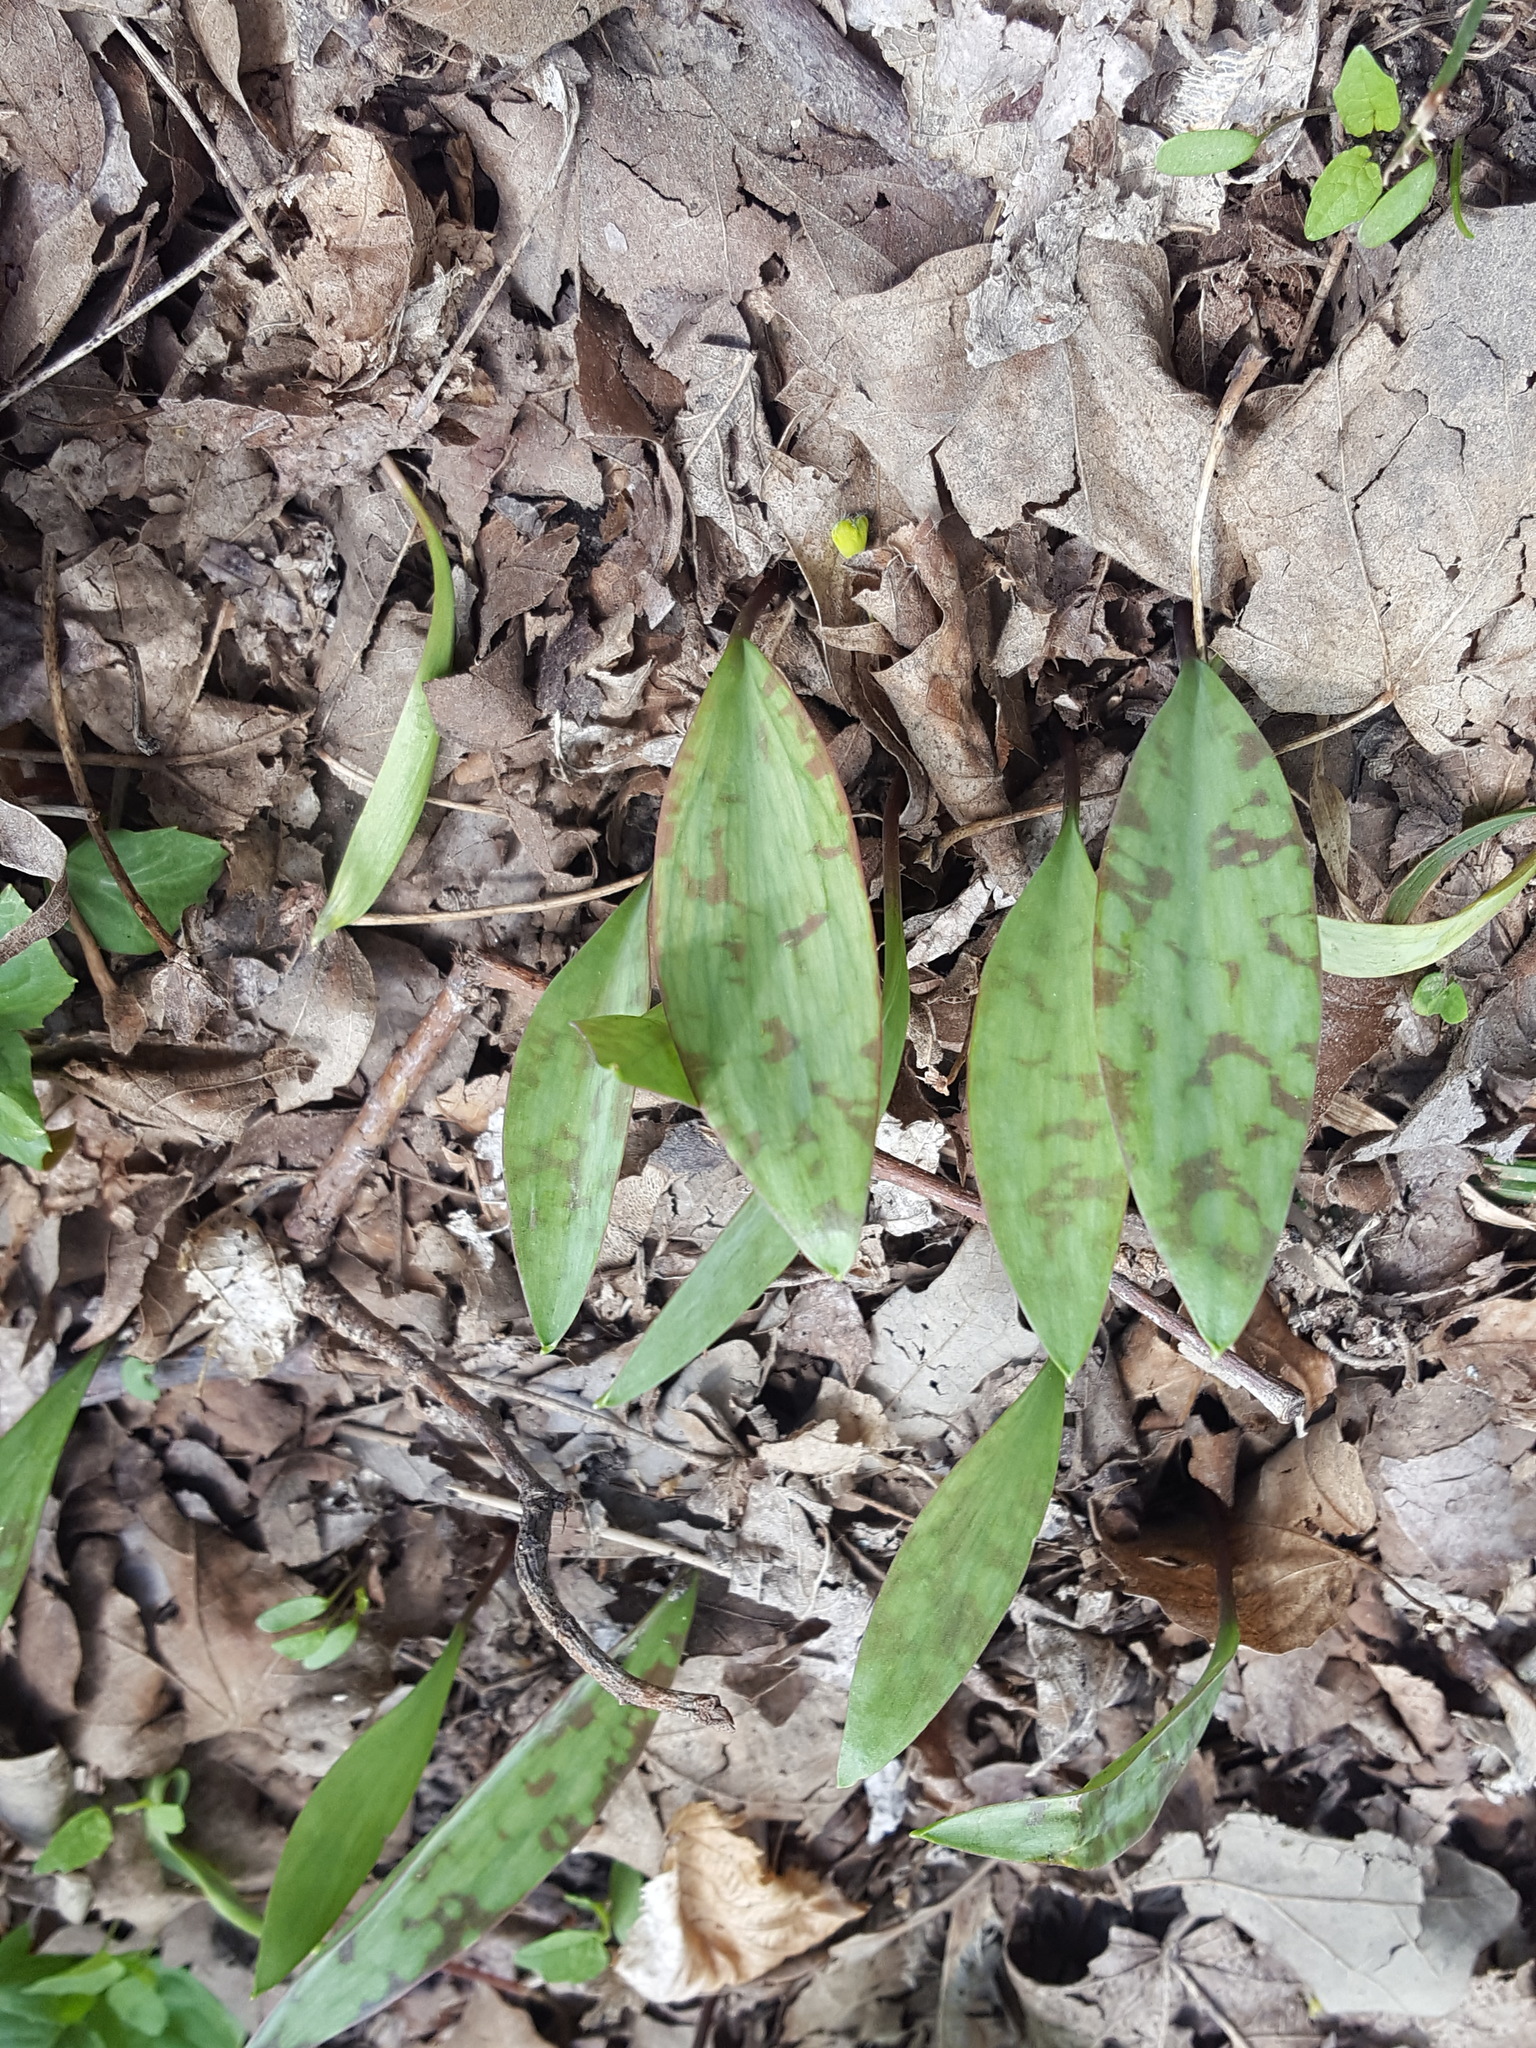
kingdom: Plantae
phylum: Tracheophyta
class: Liliopsida
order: Liliales
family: Liliaceae
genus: Erythronium
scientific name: Erythronium albidum
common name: White trout-lily
